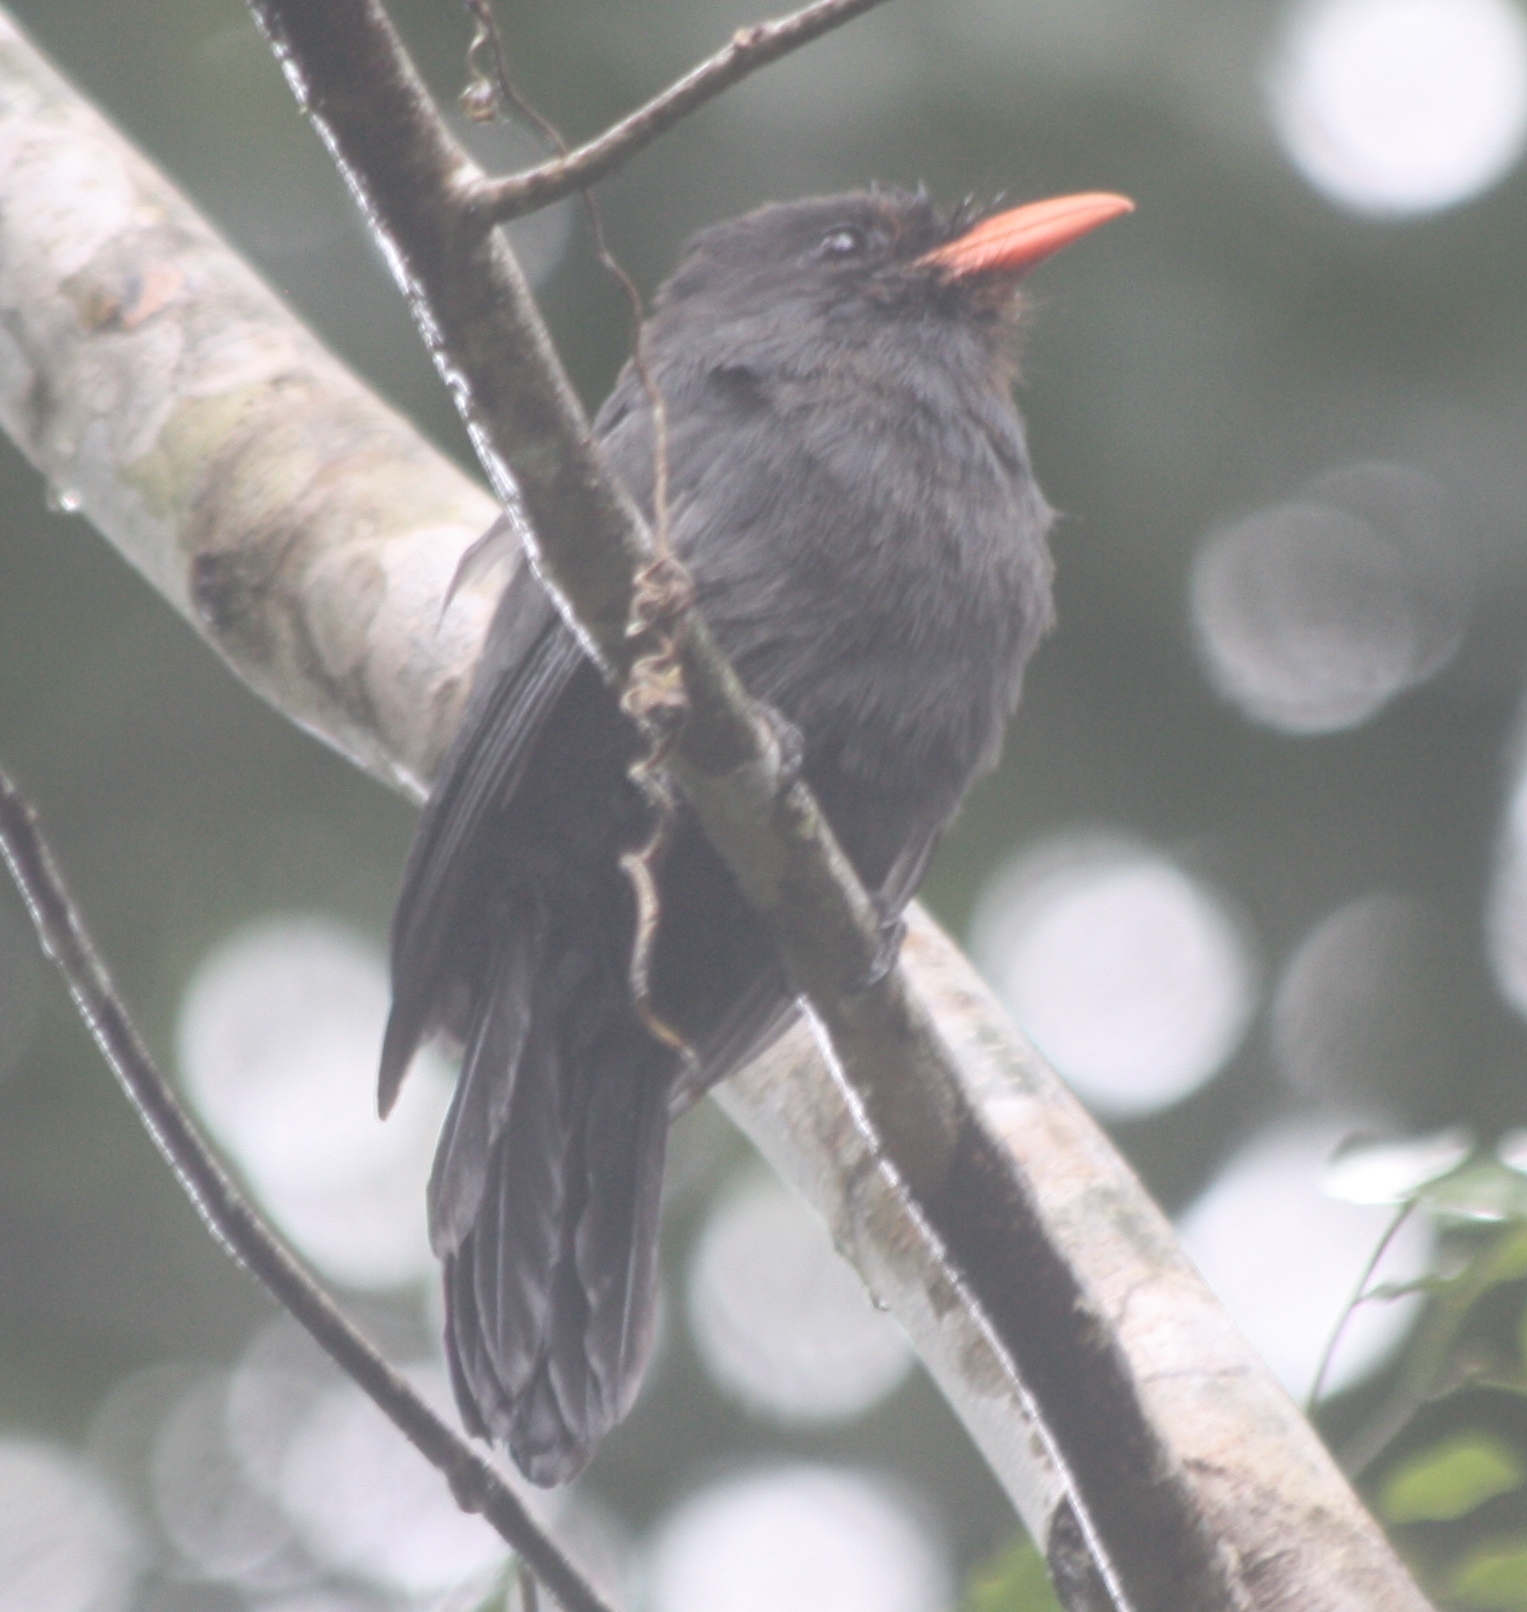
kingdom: Animalia
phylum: Chordata
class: Aves
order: Piciformes
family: Bucconidae
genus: Monasa
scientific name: Monasa nigrifrons
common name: Black-fronted nunbird
